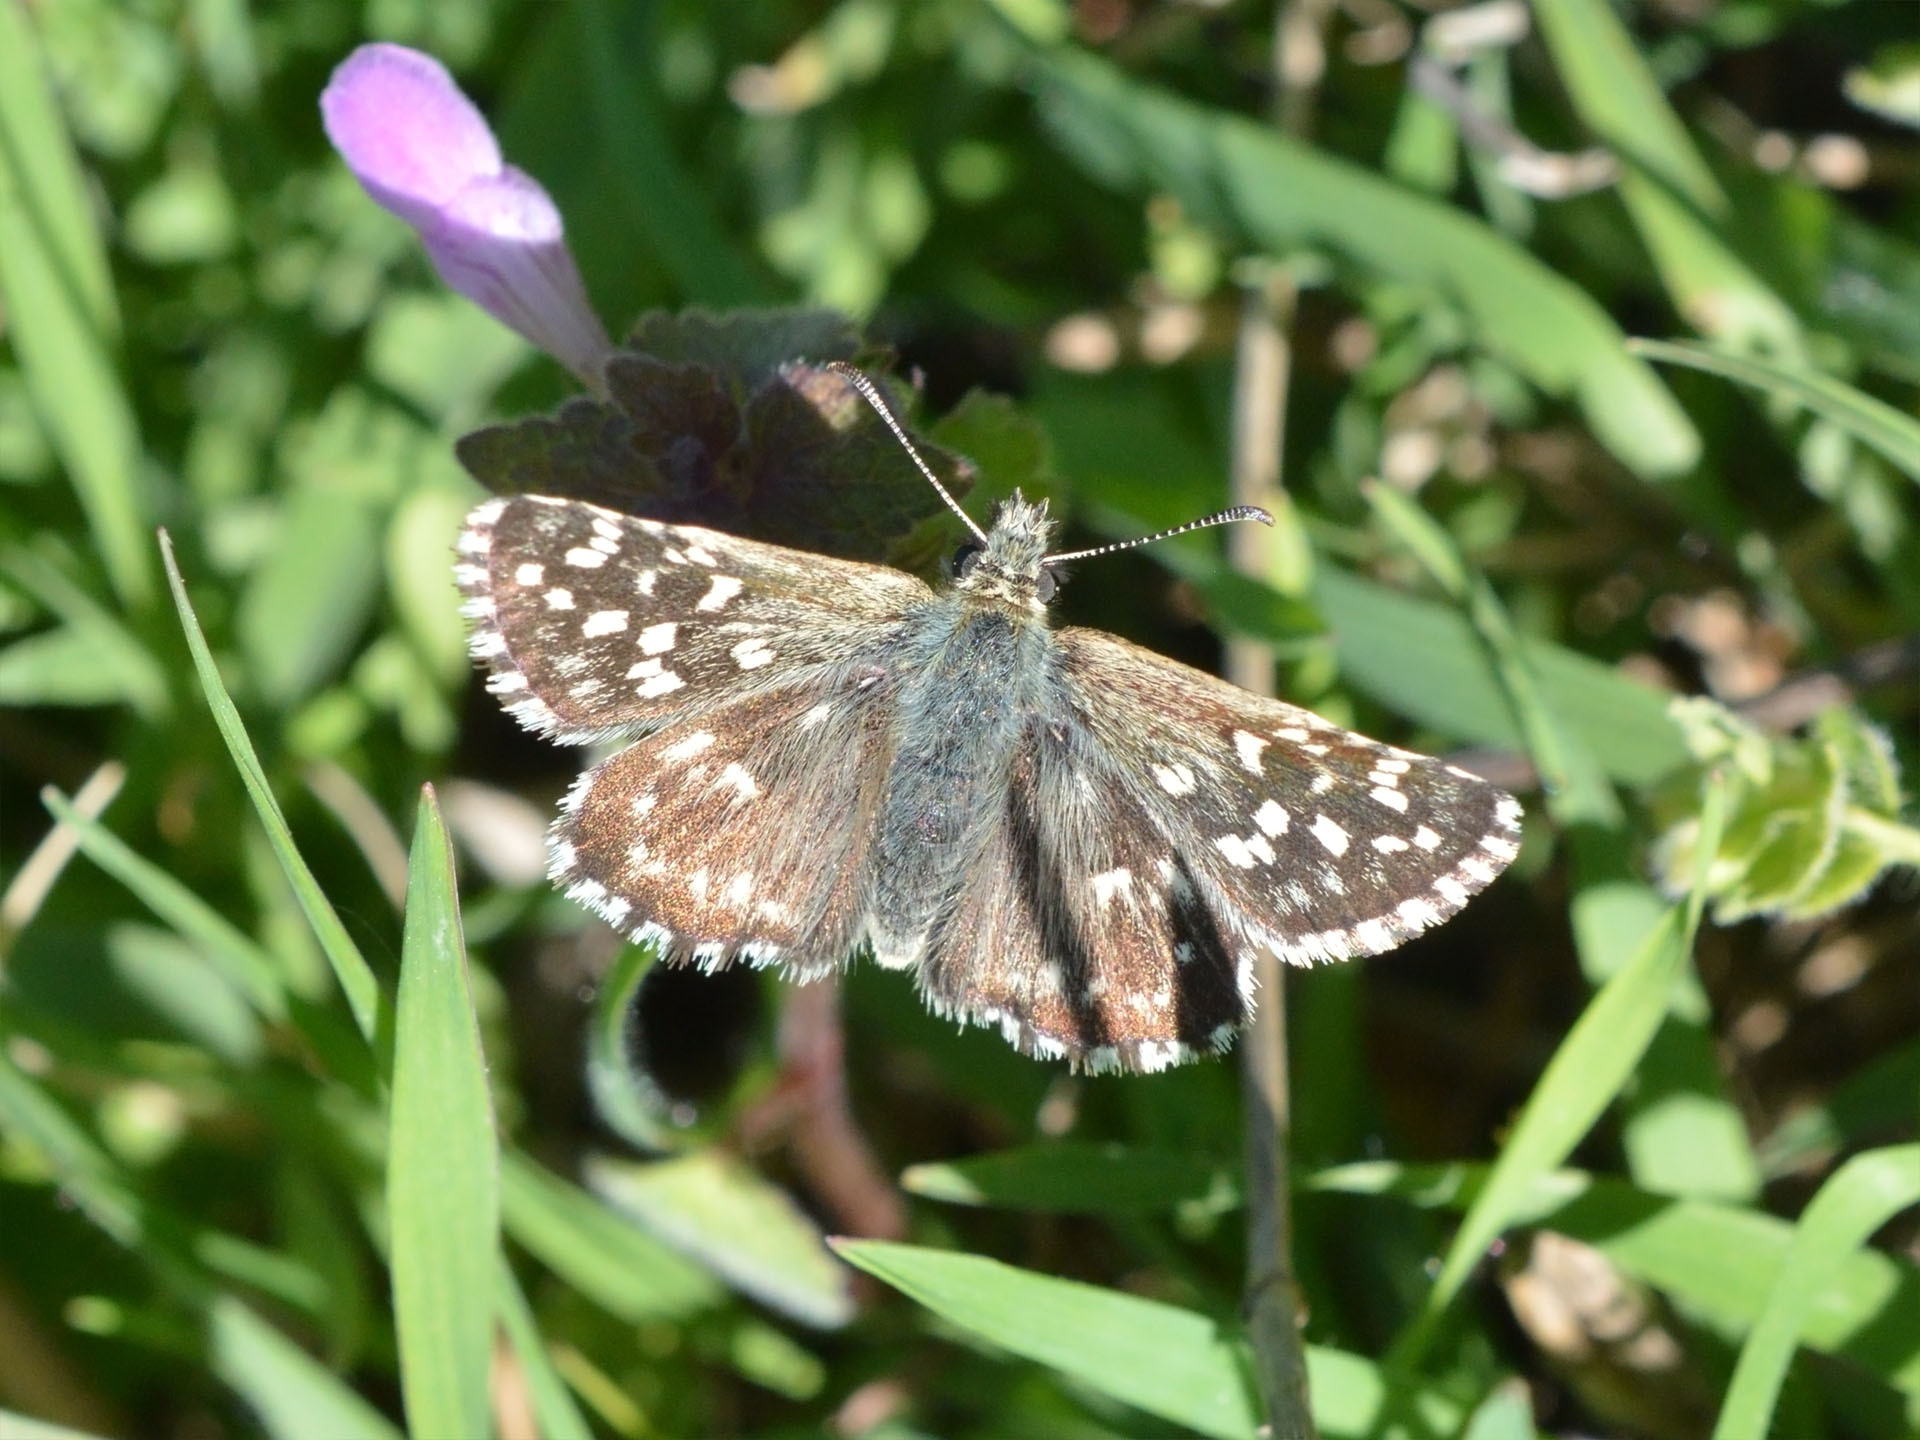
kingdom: Animalia
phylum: Arthropoda
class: Insecta
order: Lepidoptera
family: Hesperiidae
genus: Pyrgus
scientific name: Pyrgus malvae
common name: Grizzled skipper
